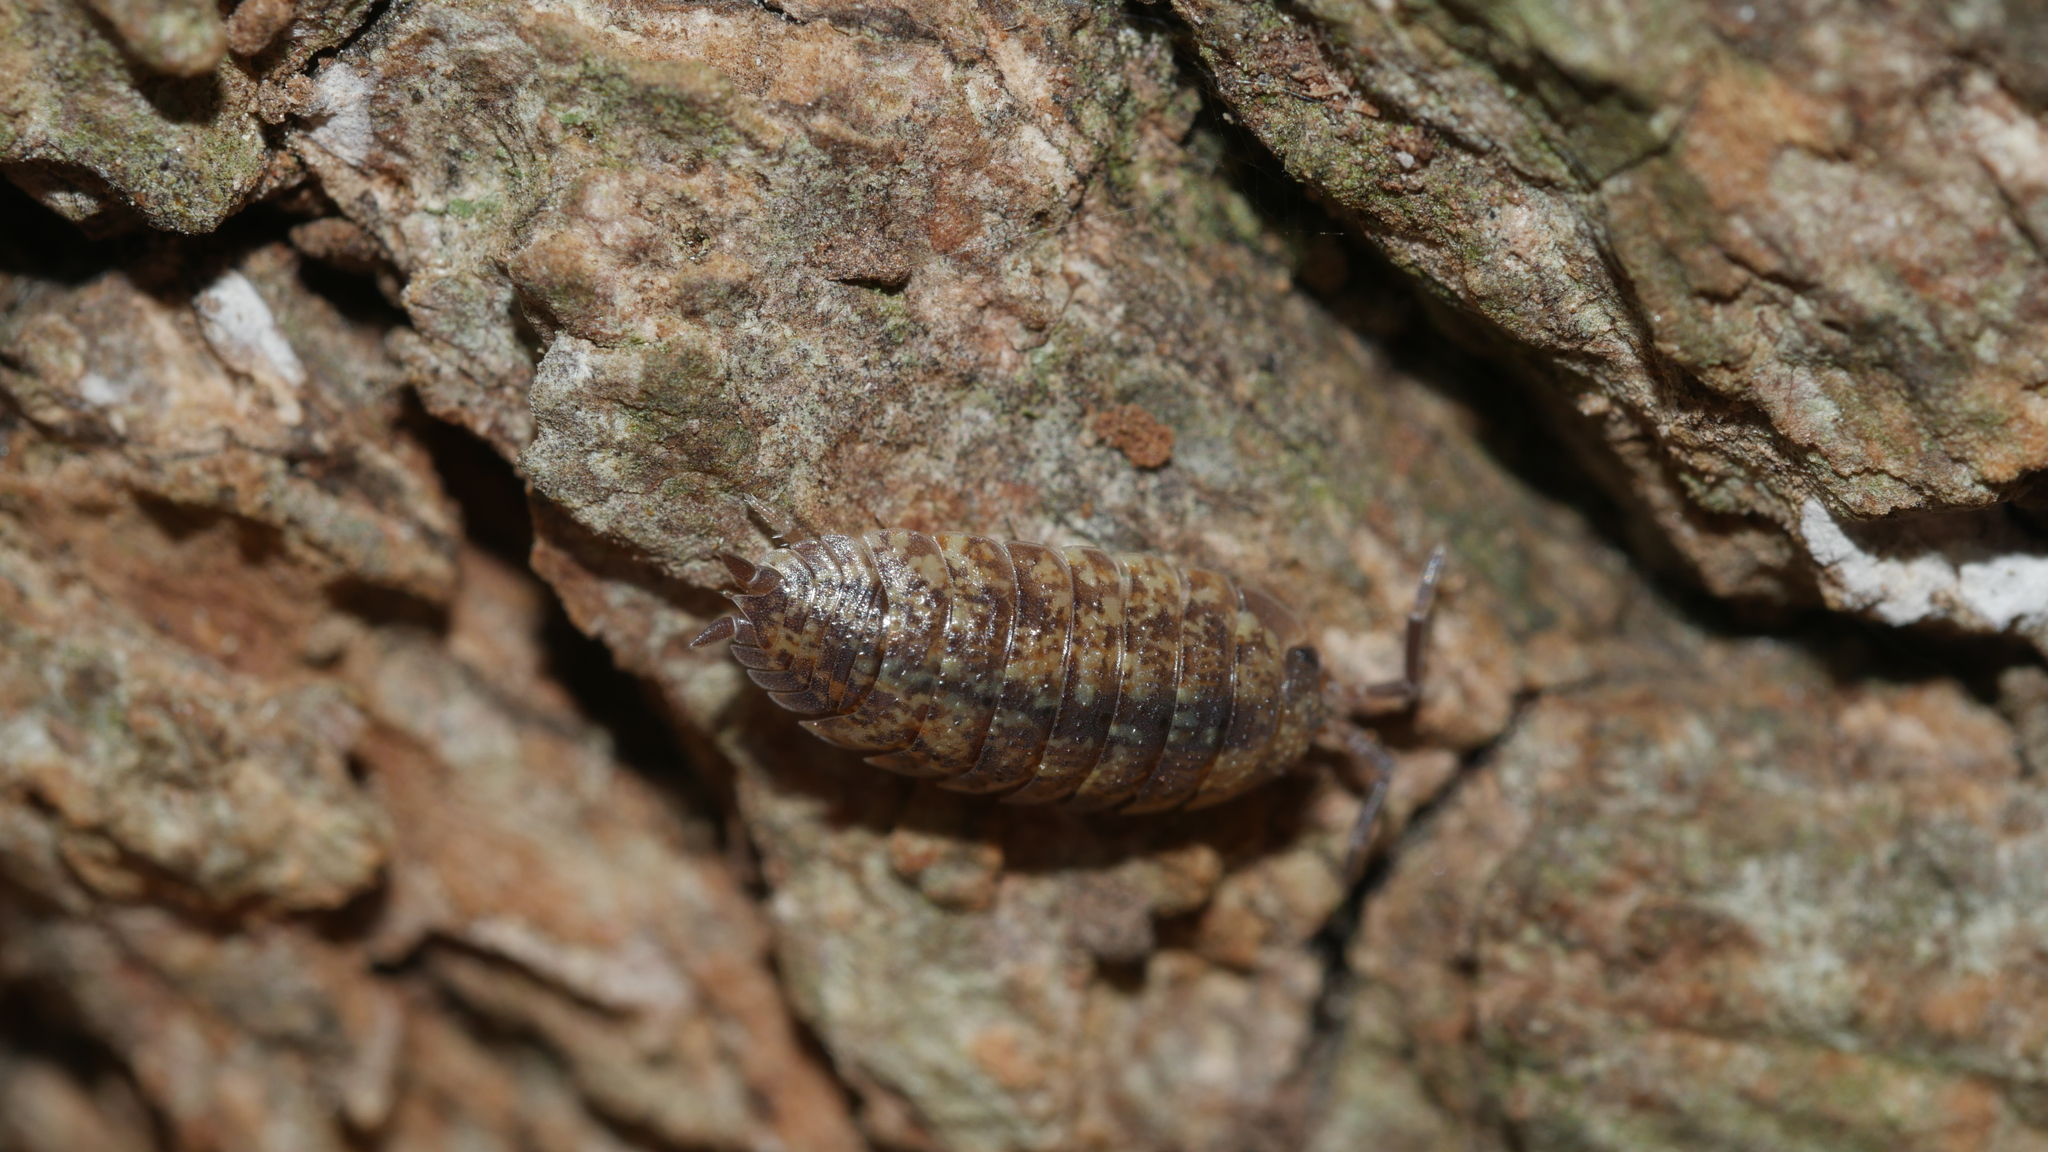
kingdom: Animalia
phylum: Arthropoda
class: Malacostraca
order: Isopoda
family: Porcellionidae
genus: Porcellio
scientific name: Porcellio scaber
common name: Common rough woodlouse
